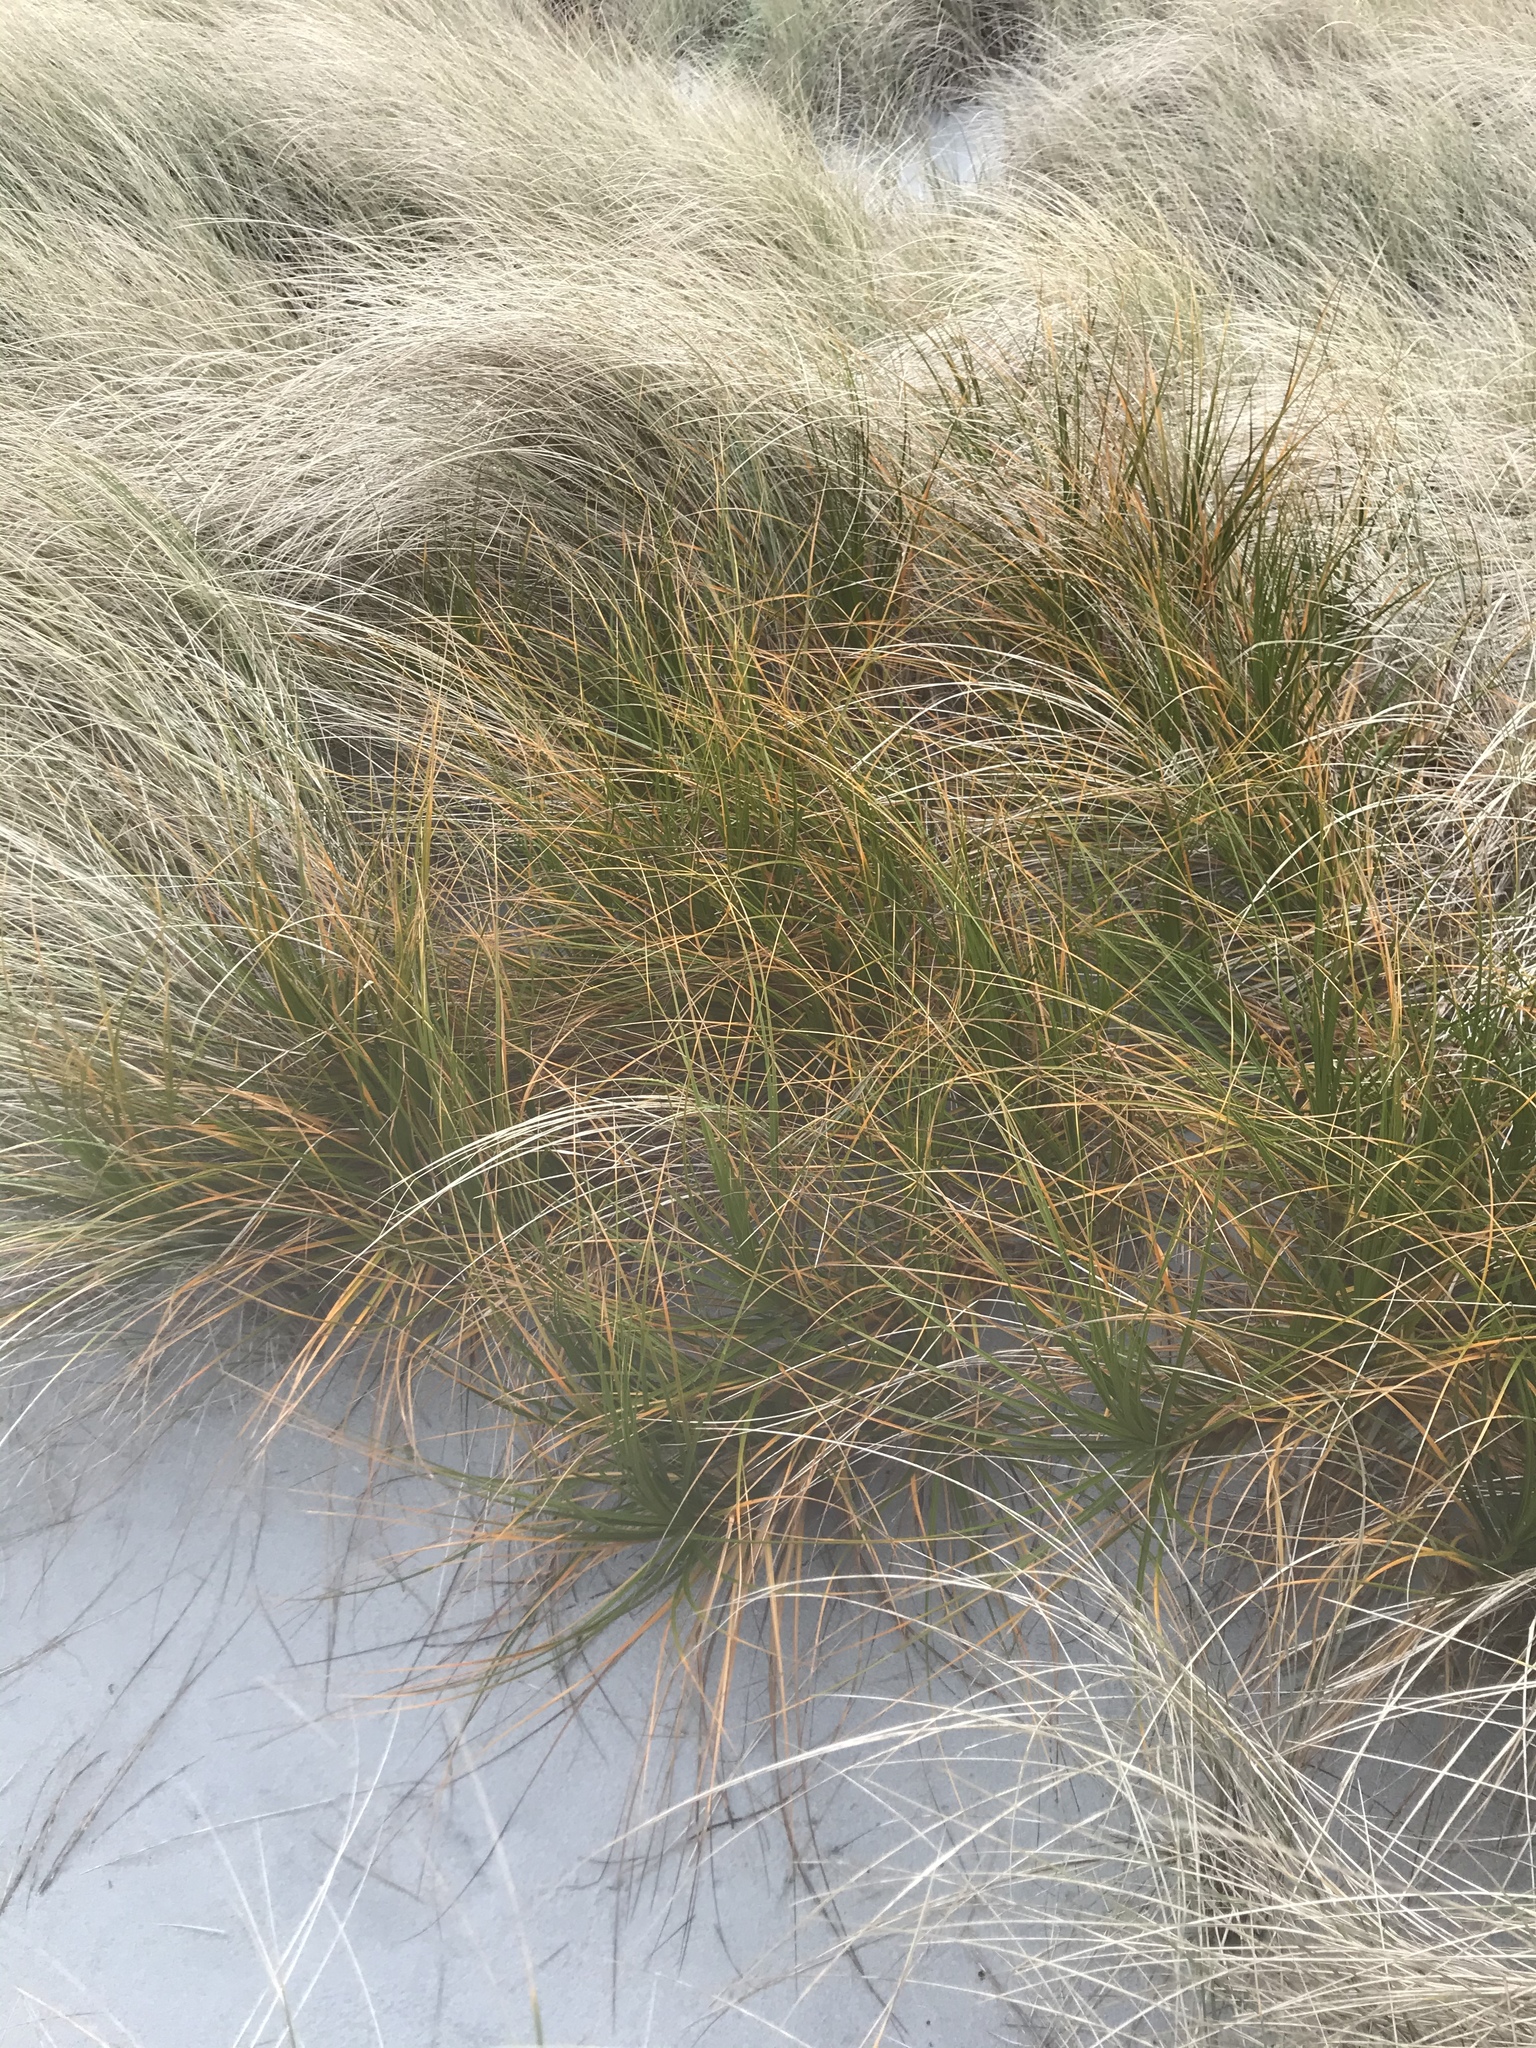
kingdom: Plantae
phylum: Tracheophyta
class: Liliopsida
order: Poales
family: Cyperaceae
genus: Ficinia
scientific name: Ficinia spiralis
